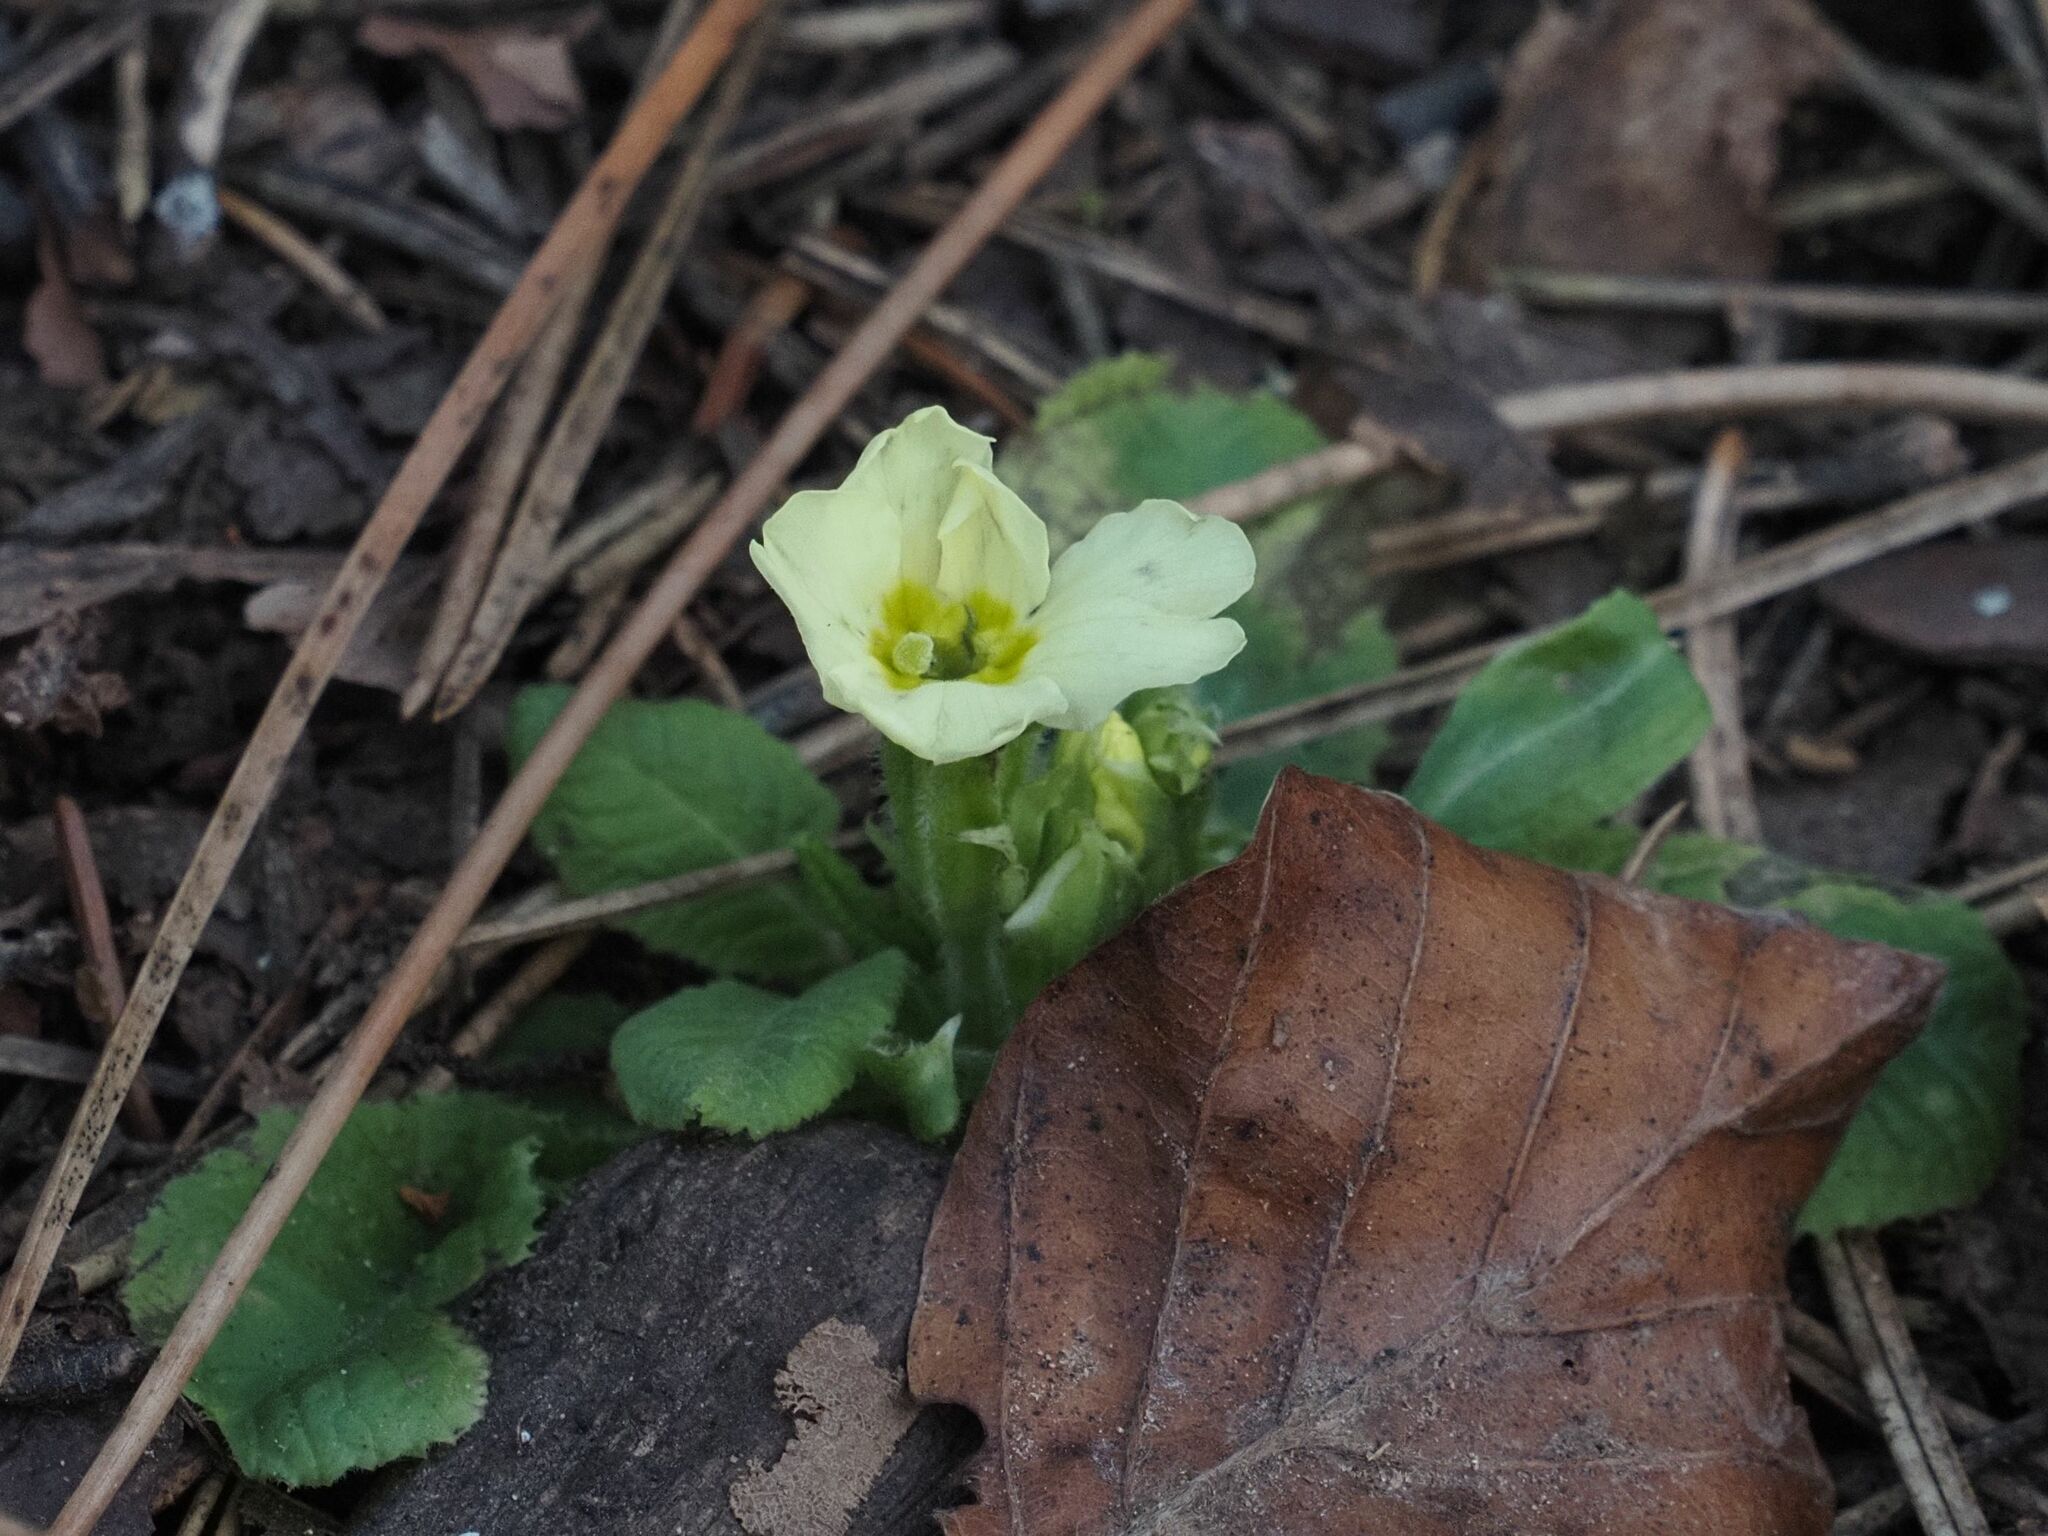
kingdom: Plantae
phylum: Tracheophyta
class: Magnoliopsida
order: Ericales
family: Primulaceae
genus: Primula
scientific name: Primula vulgaris
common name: Primrose
